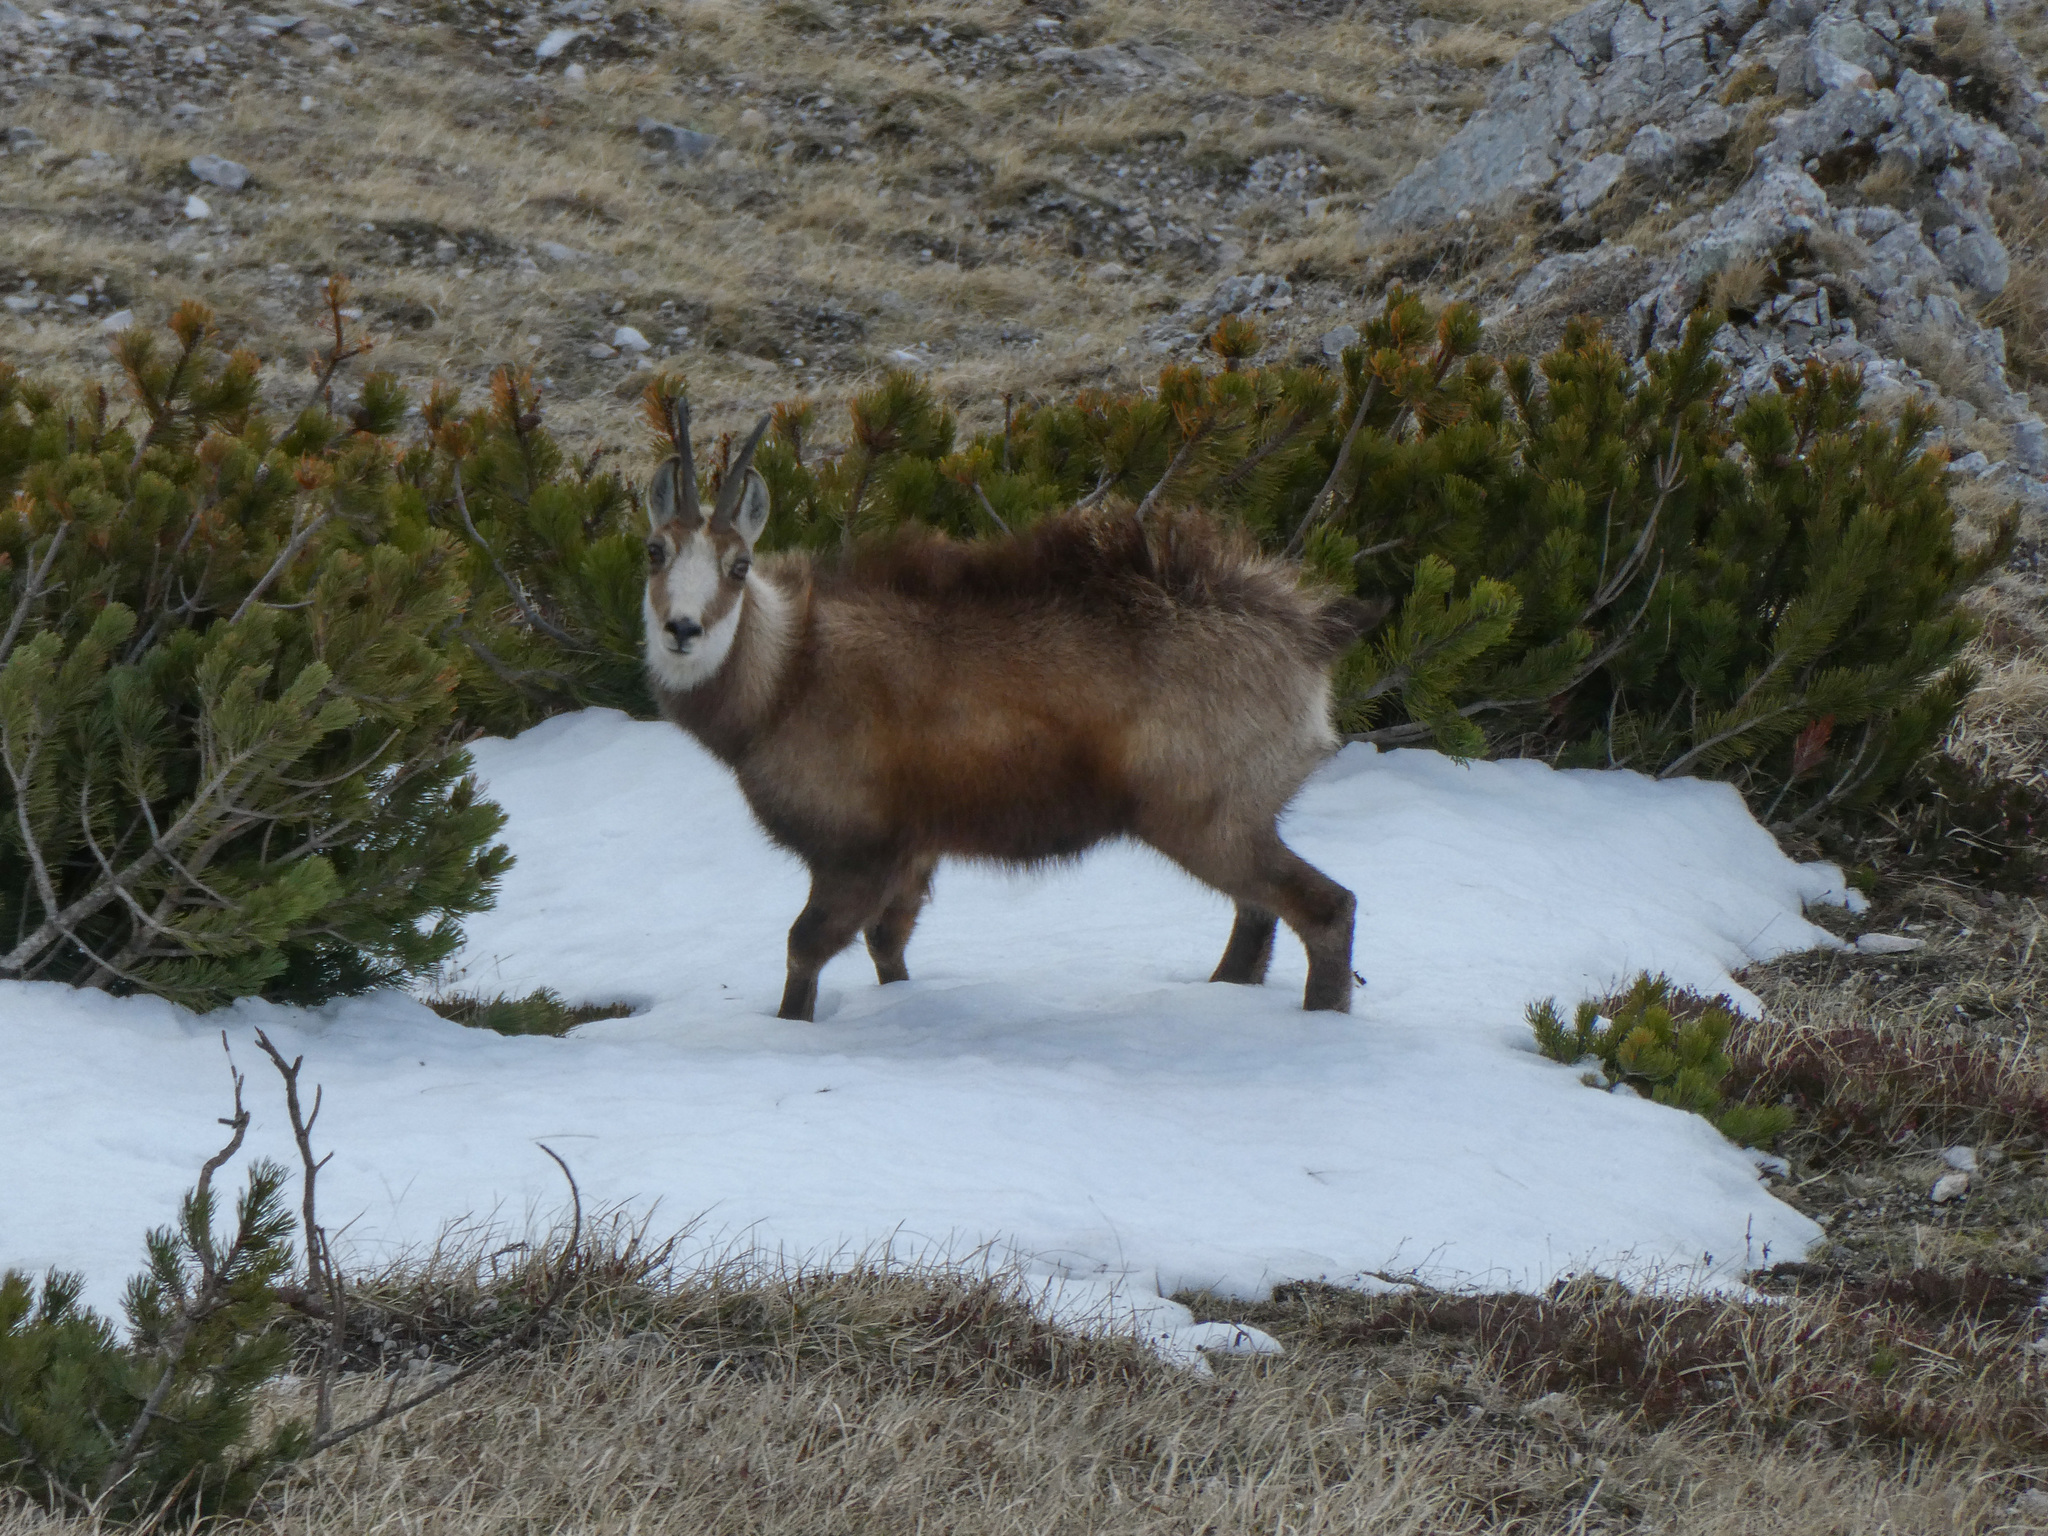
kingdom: Animalia
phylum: Chordata
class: Mammalia
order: Artiodactyla
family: Bovidae
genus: Rupicapra
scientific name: Rupicapra rupicapra
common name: Chamois
